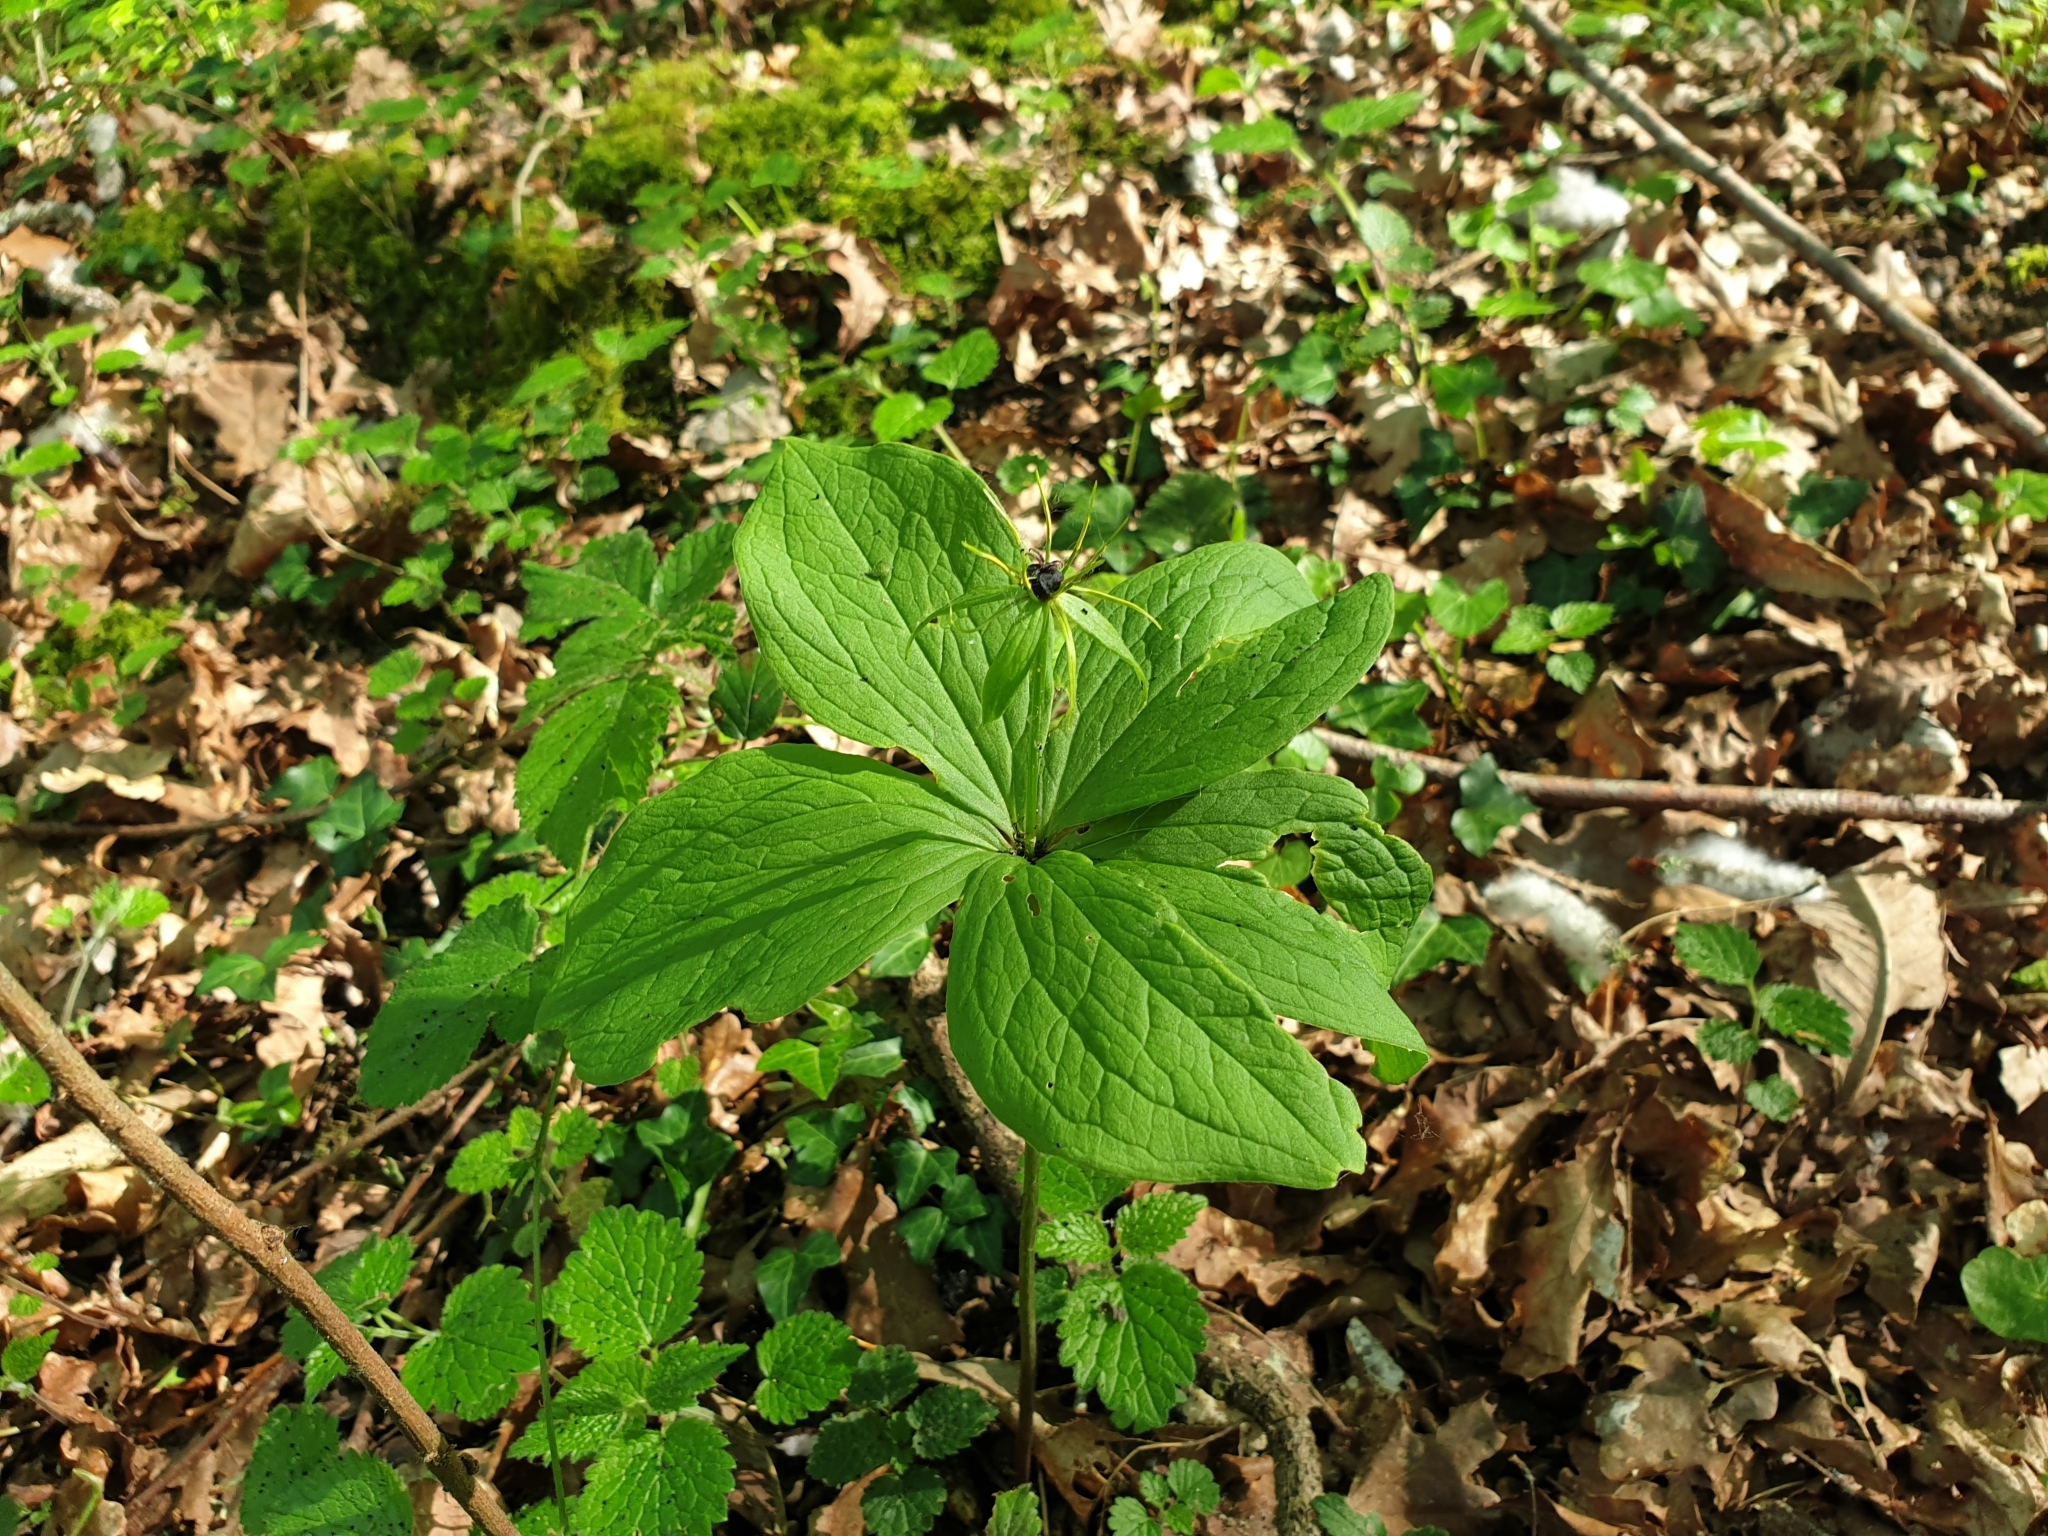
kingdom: Plantae
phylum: Tracheophyta
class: Liliopsida
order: Liliales
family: Melanthiaceae
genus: Paris
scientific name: Paris quadrifolia
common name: Herb-paris
